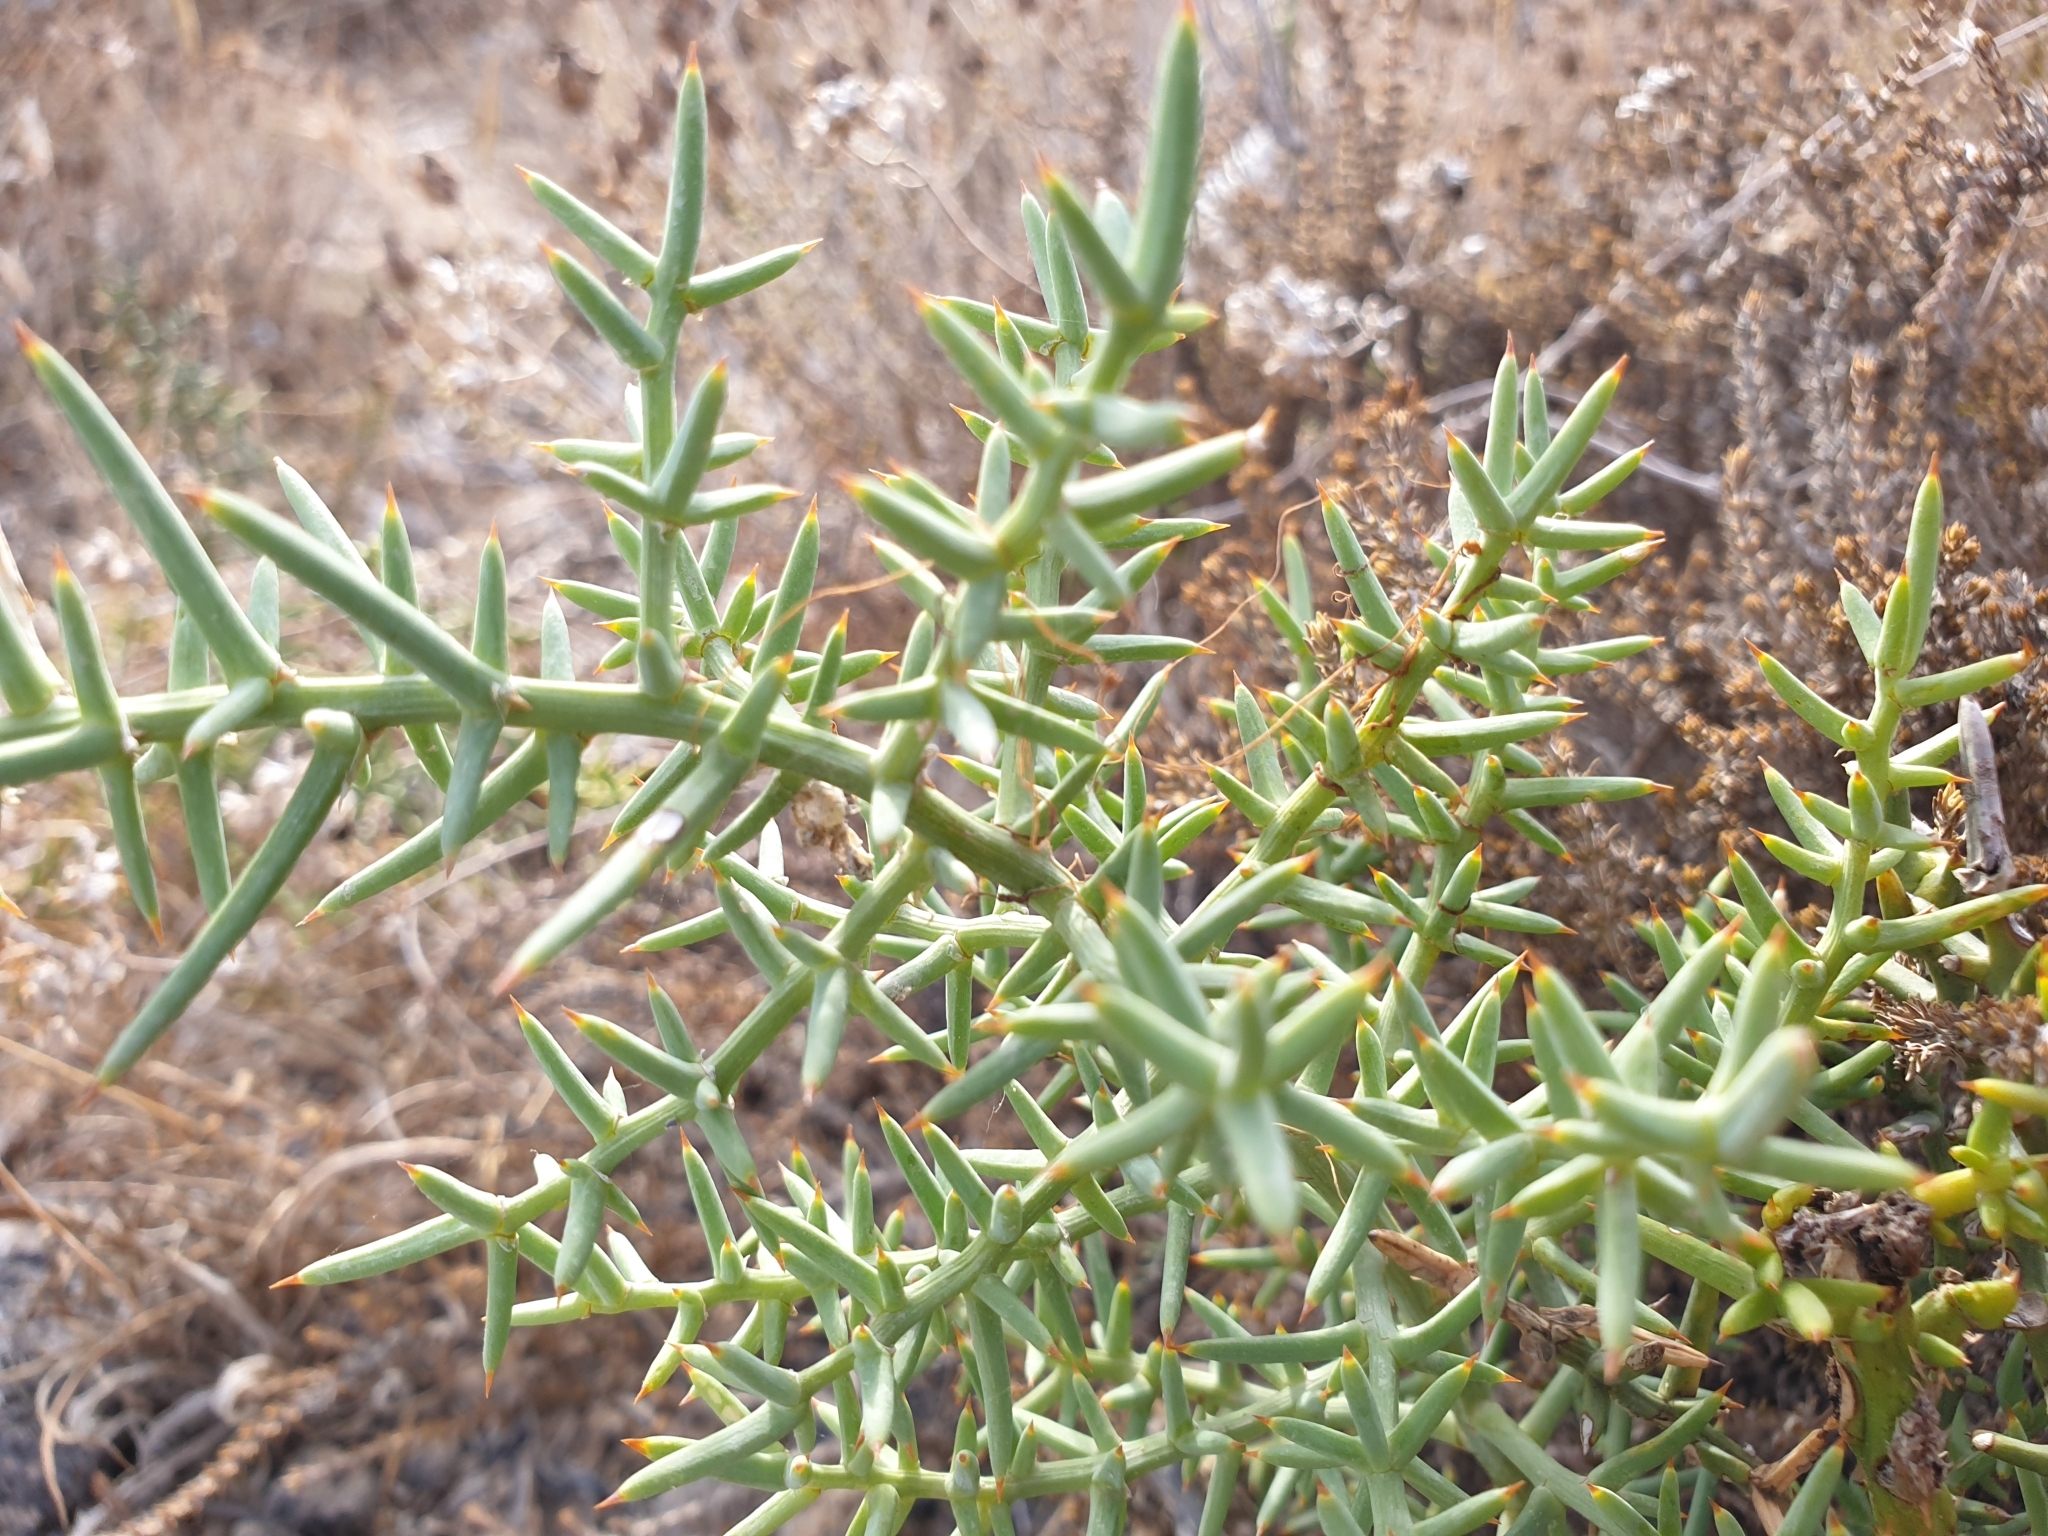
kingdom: Plantae
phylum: Tracheophyta
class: Liliopsida
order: Asparagales
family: Asparagaceae
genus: Asparagus
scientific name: Asparagus horridus
